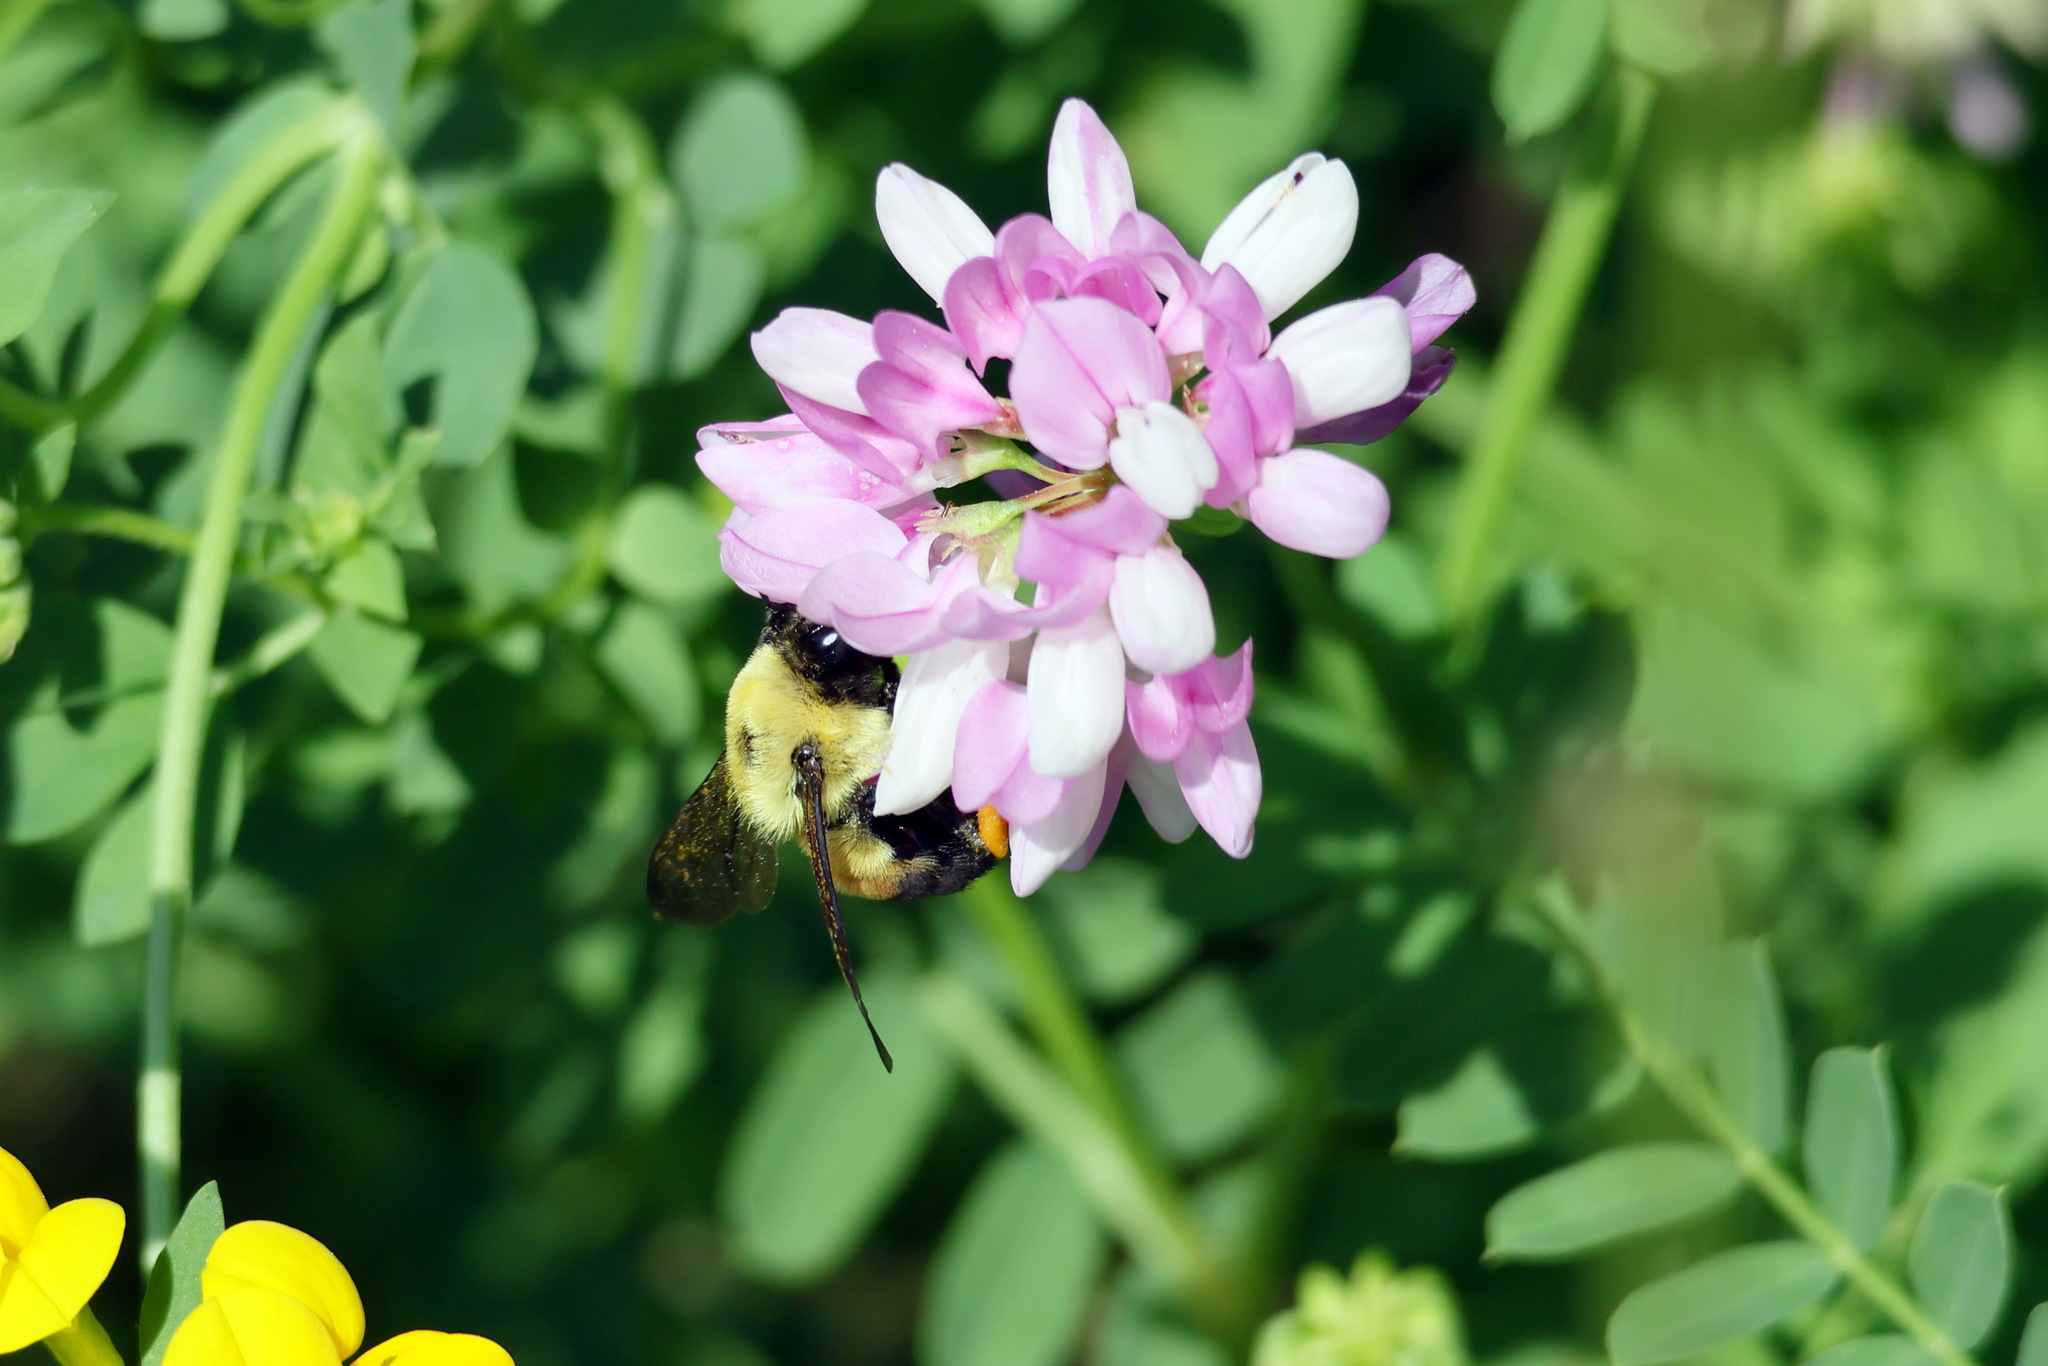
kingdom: Animalia
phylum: Arthropoda
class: Insecta
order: Hymenoptera
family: Apidae
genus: Bombus
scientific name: Bombus griseocollis
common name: Brown-belted bumble bee
